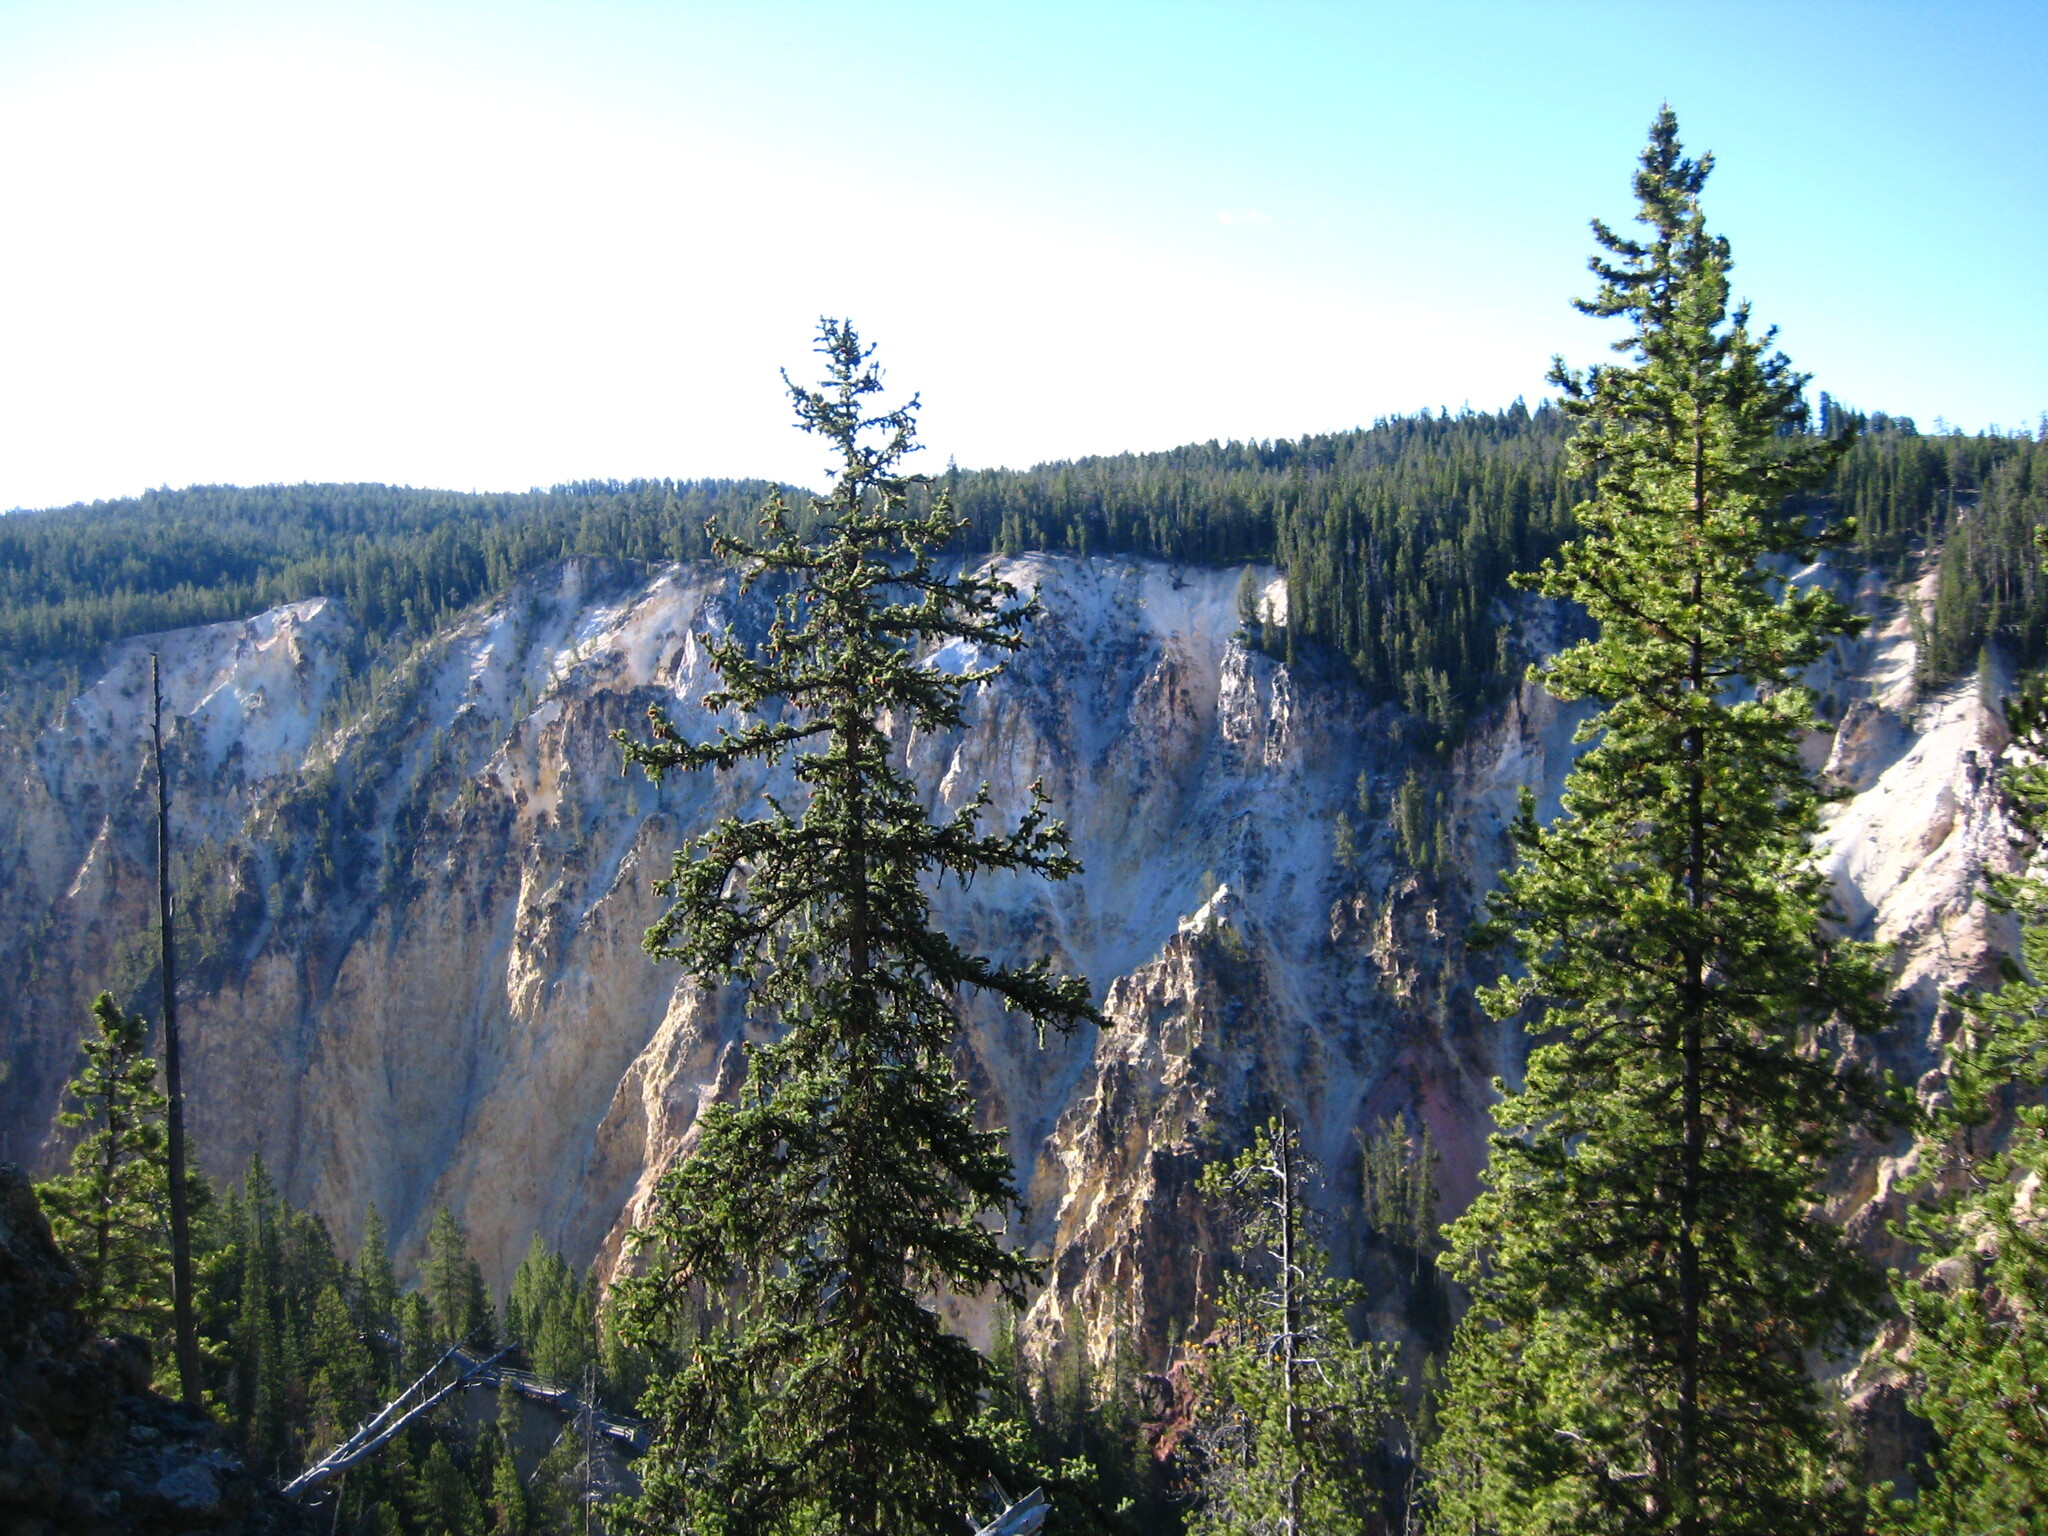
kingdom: Plantae
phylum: Tracheophyta
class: Pinopsida
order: Pinales
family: Pinaceae
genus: Picea
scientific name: Picea engelmannii
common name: Engelmann spruce
